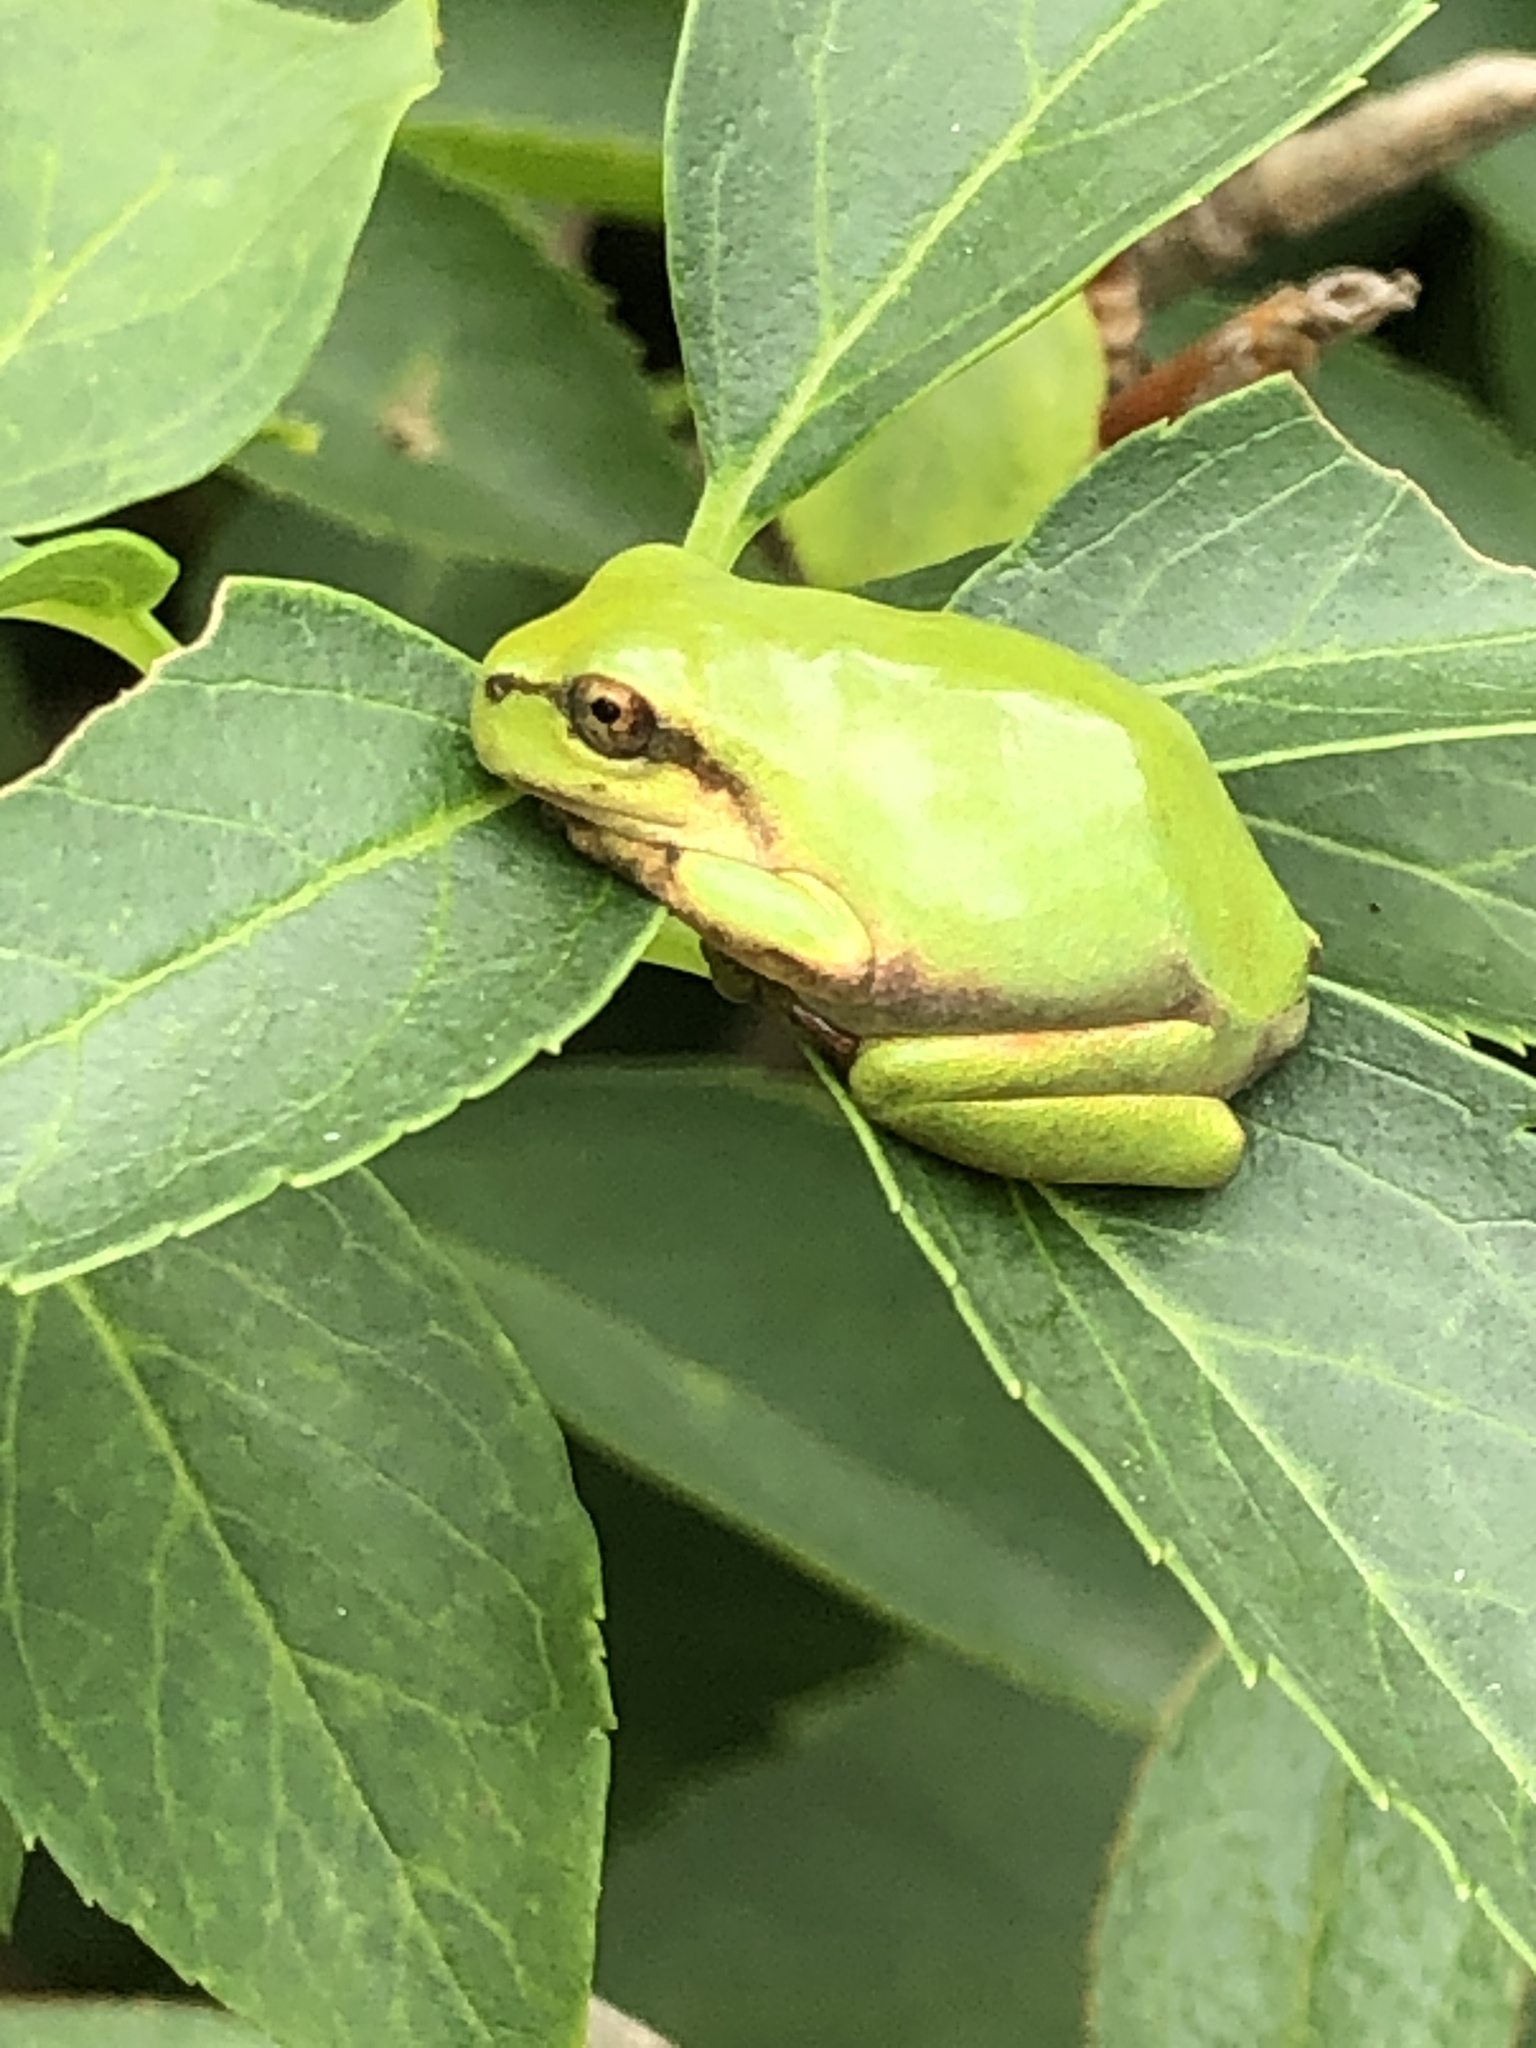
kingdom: Animalia
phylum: Chordata
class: Amphibia
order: Anura
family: Hylidae
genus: Dryophytes
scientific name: Dryophytes japonicus
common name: Japanese treefrog
